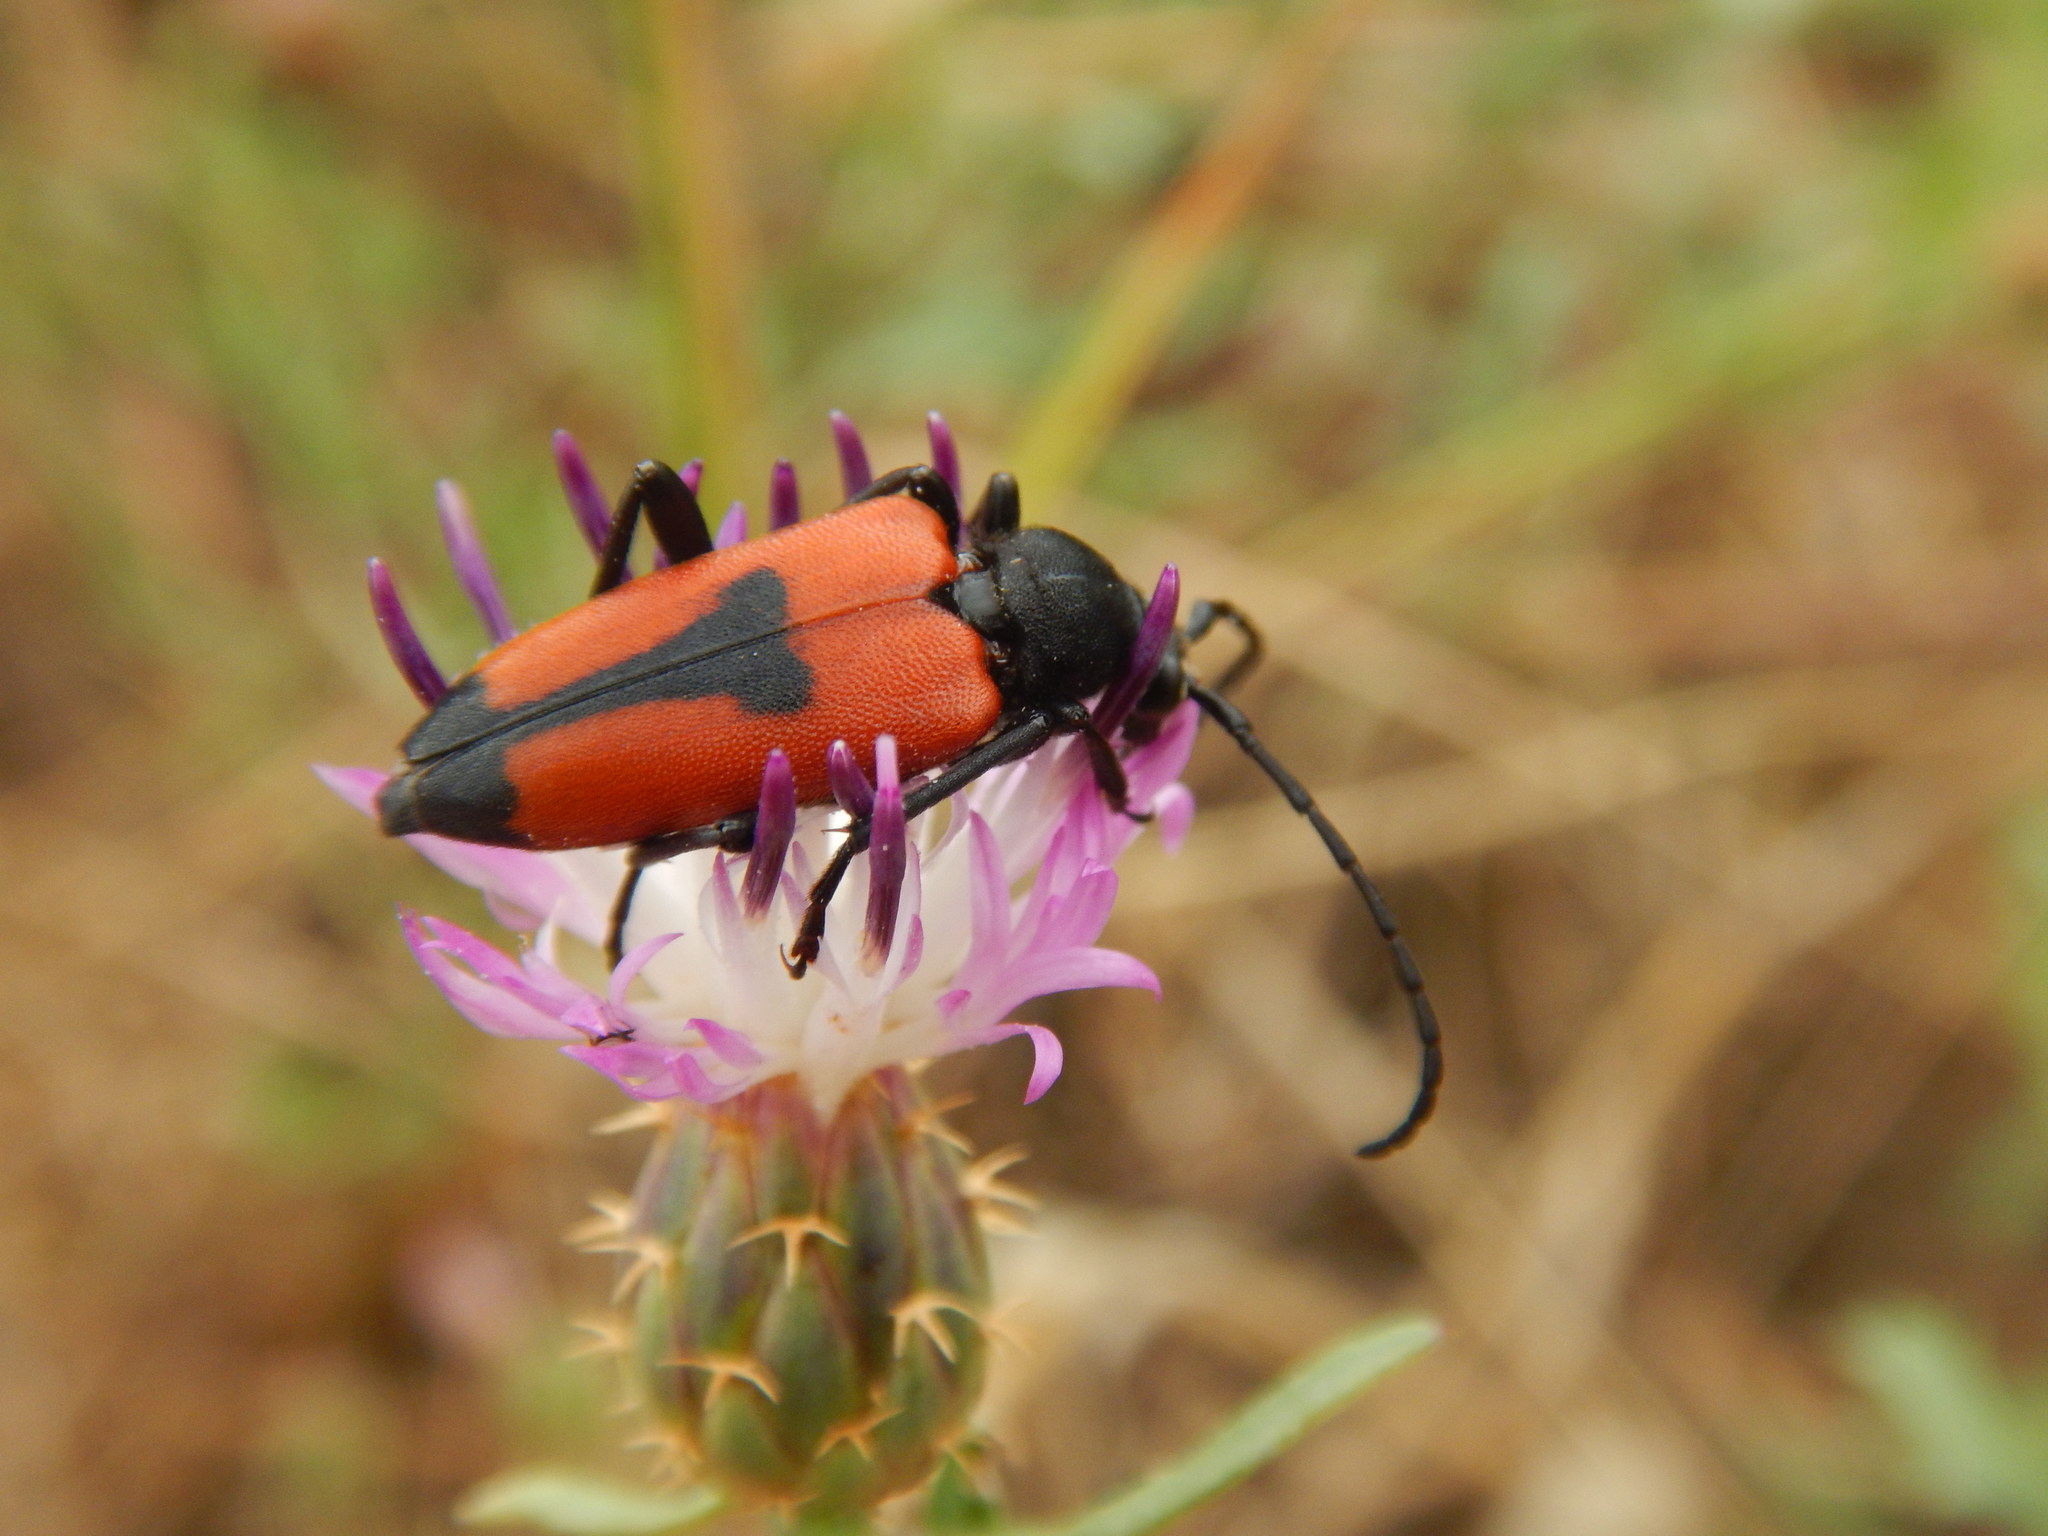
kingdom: Animalia
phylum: Arthropoda
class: Insecta
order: Coleoptera
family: Cerambycidae
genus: Stictoleptura
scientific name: Stictoleptura cordigera
